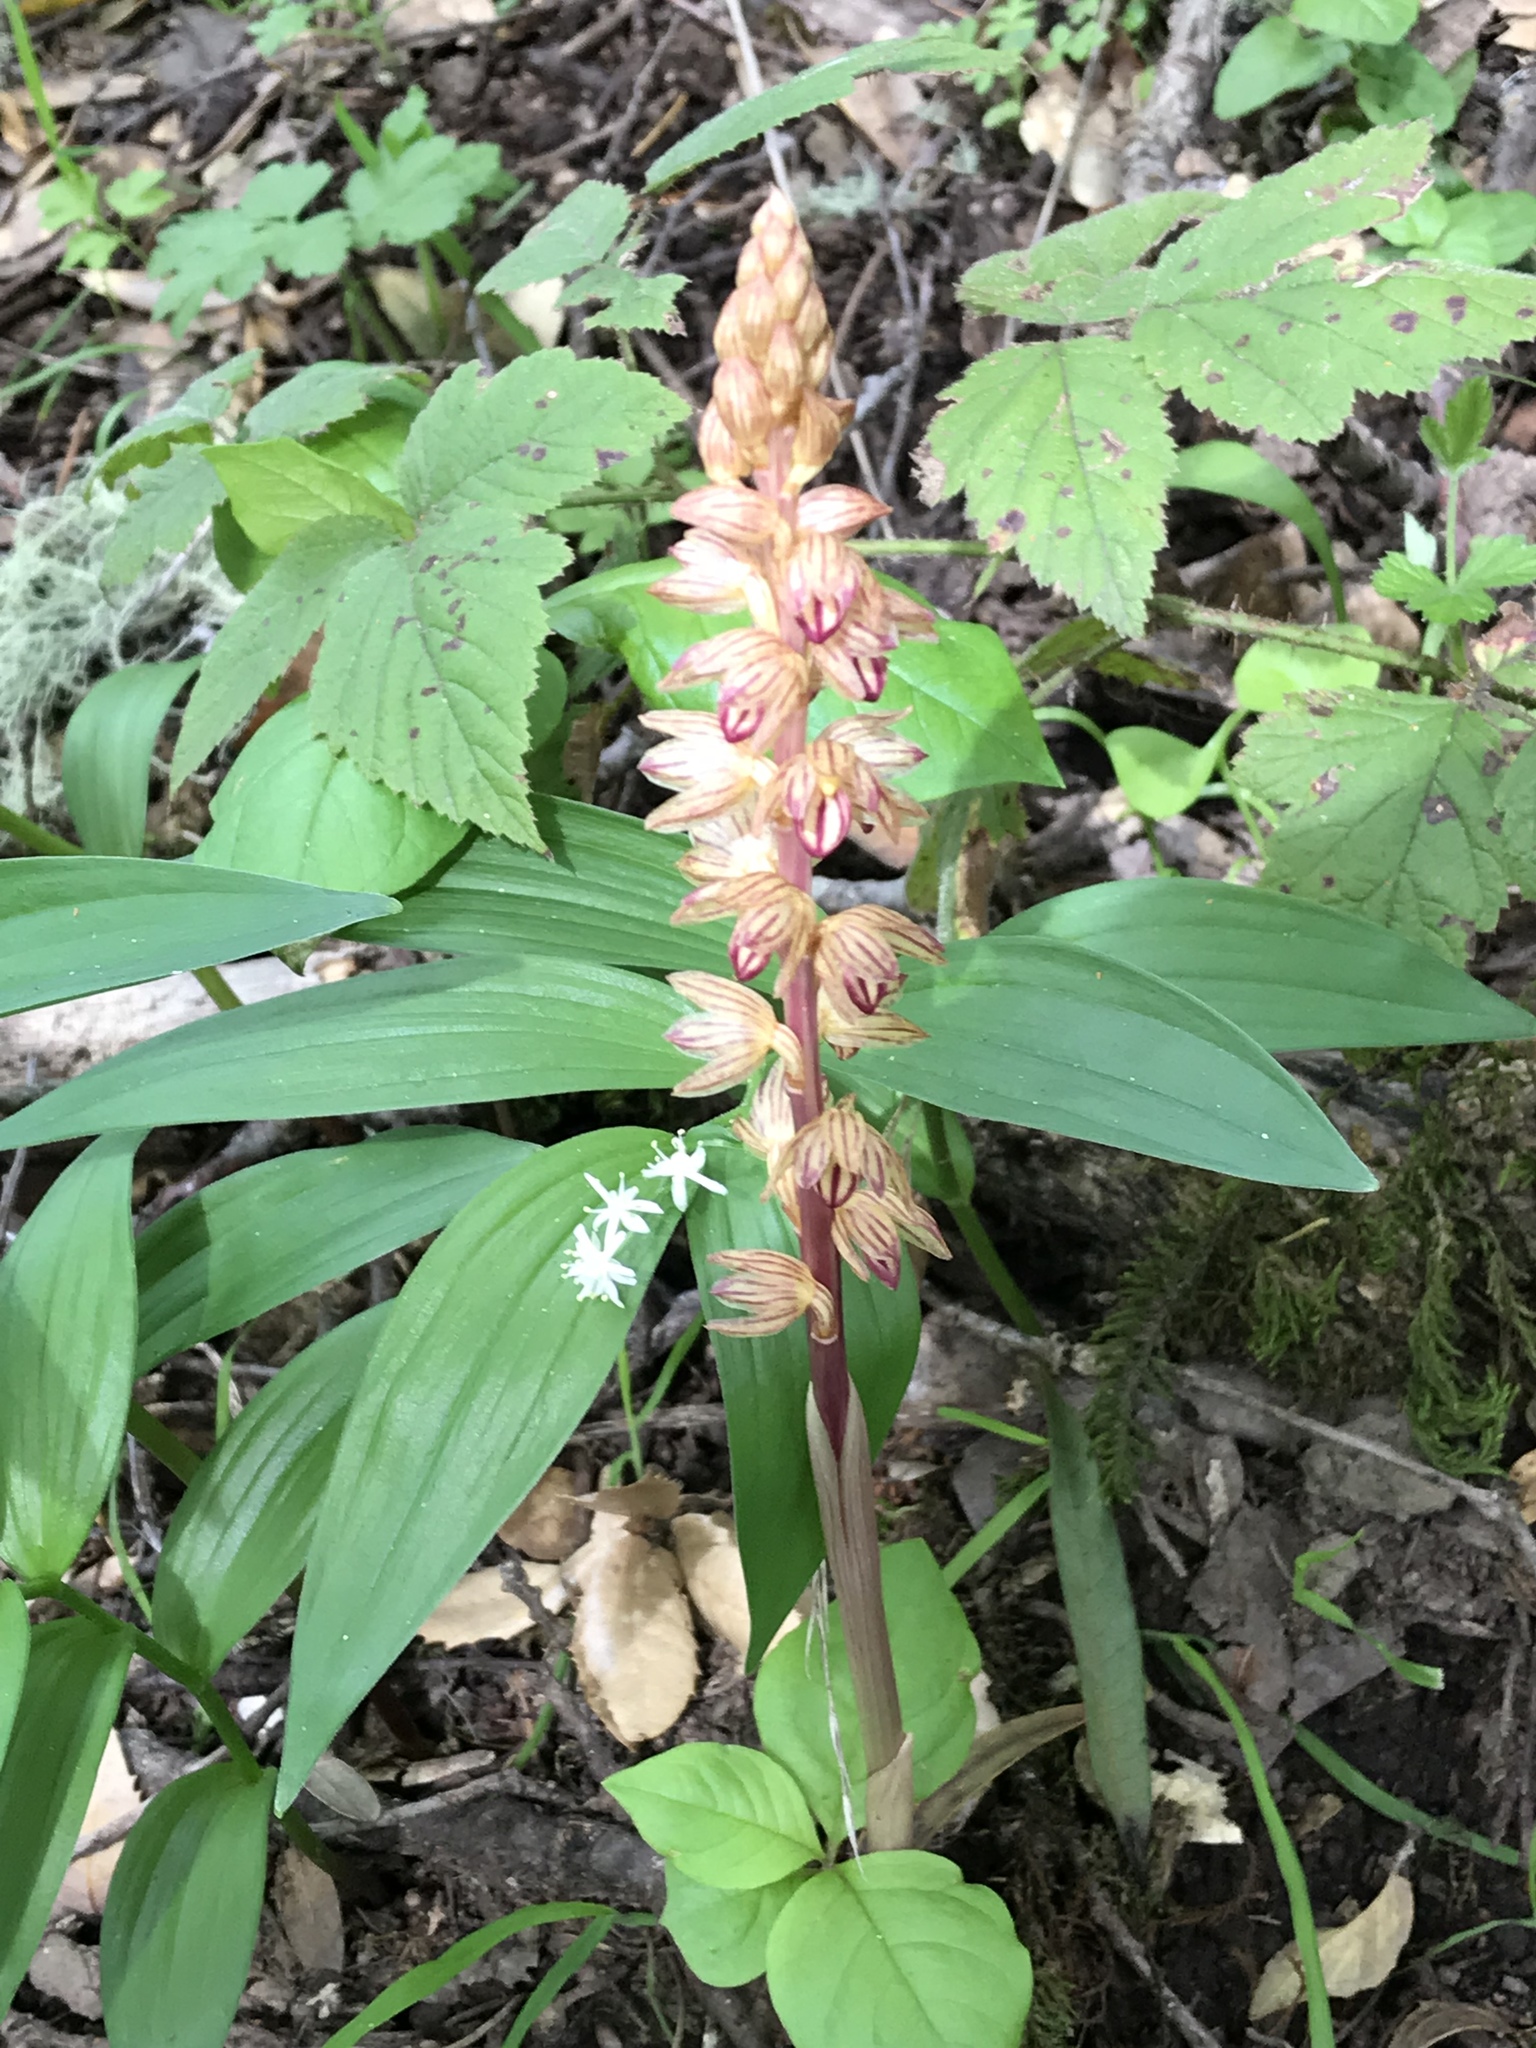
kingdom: Plantae
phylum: Tracheophyta
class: Liliopsida
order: Asparagales
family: Orchidaceae
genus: Corallorhiza
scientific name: Corallorhiza striata
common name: Hooded coralroot
